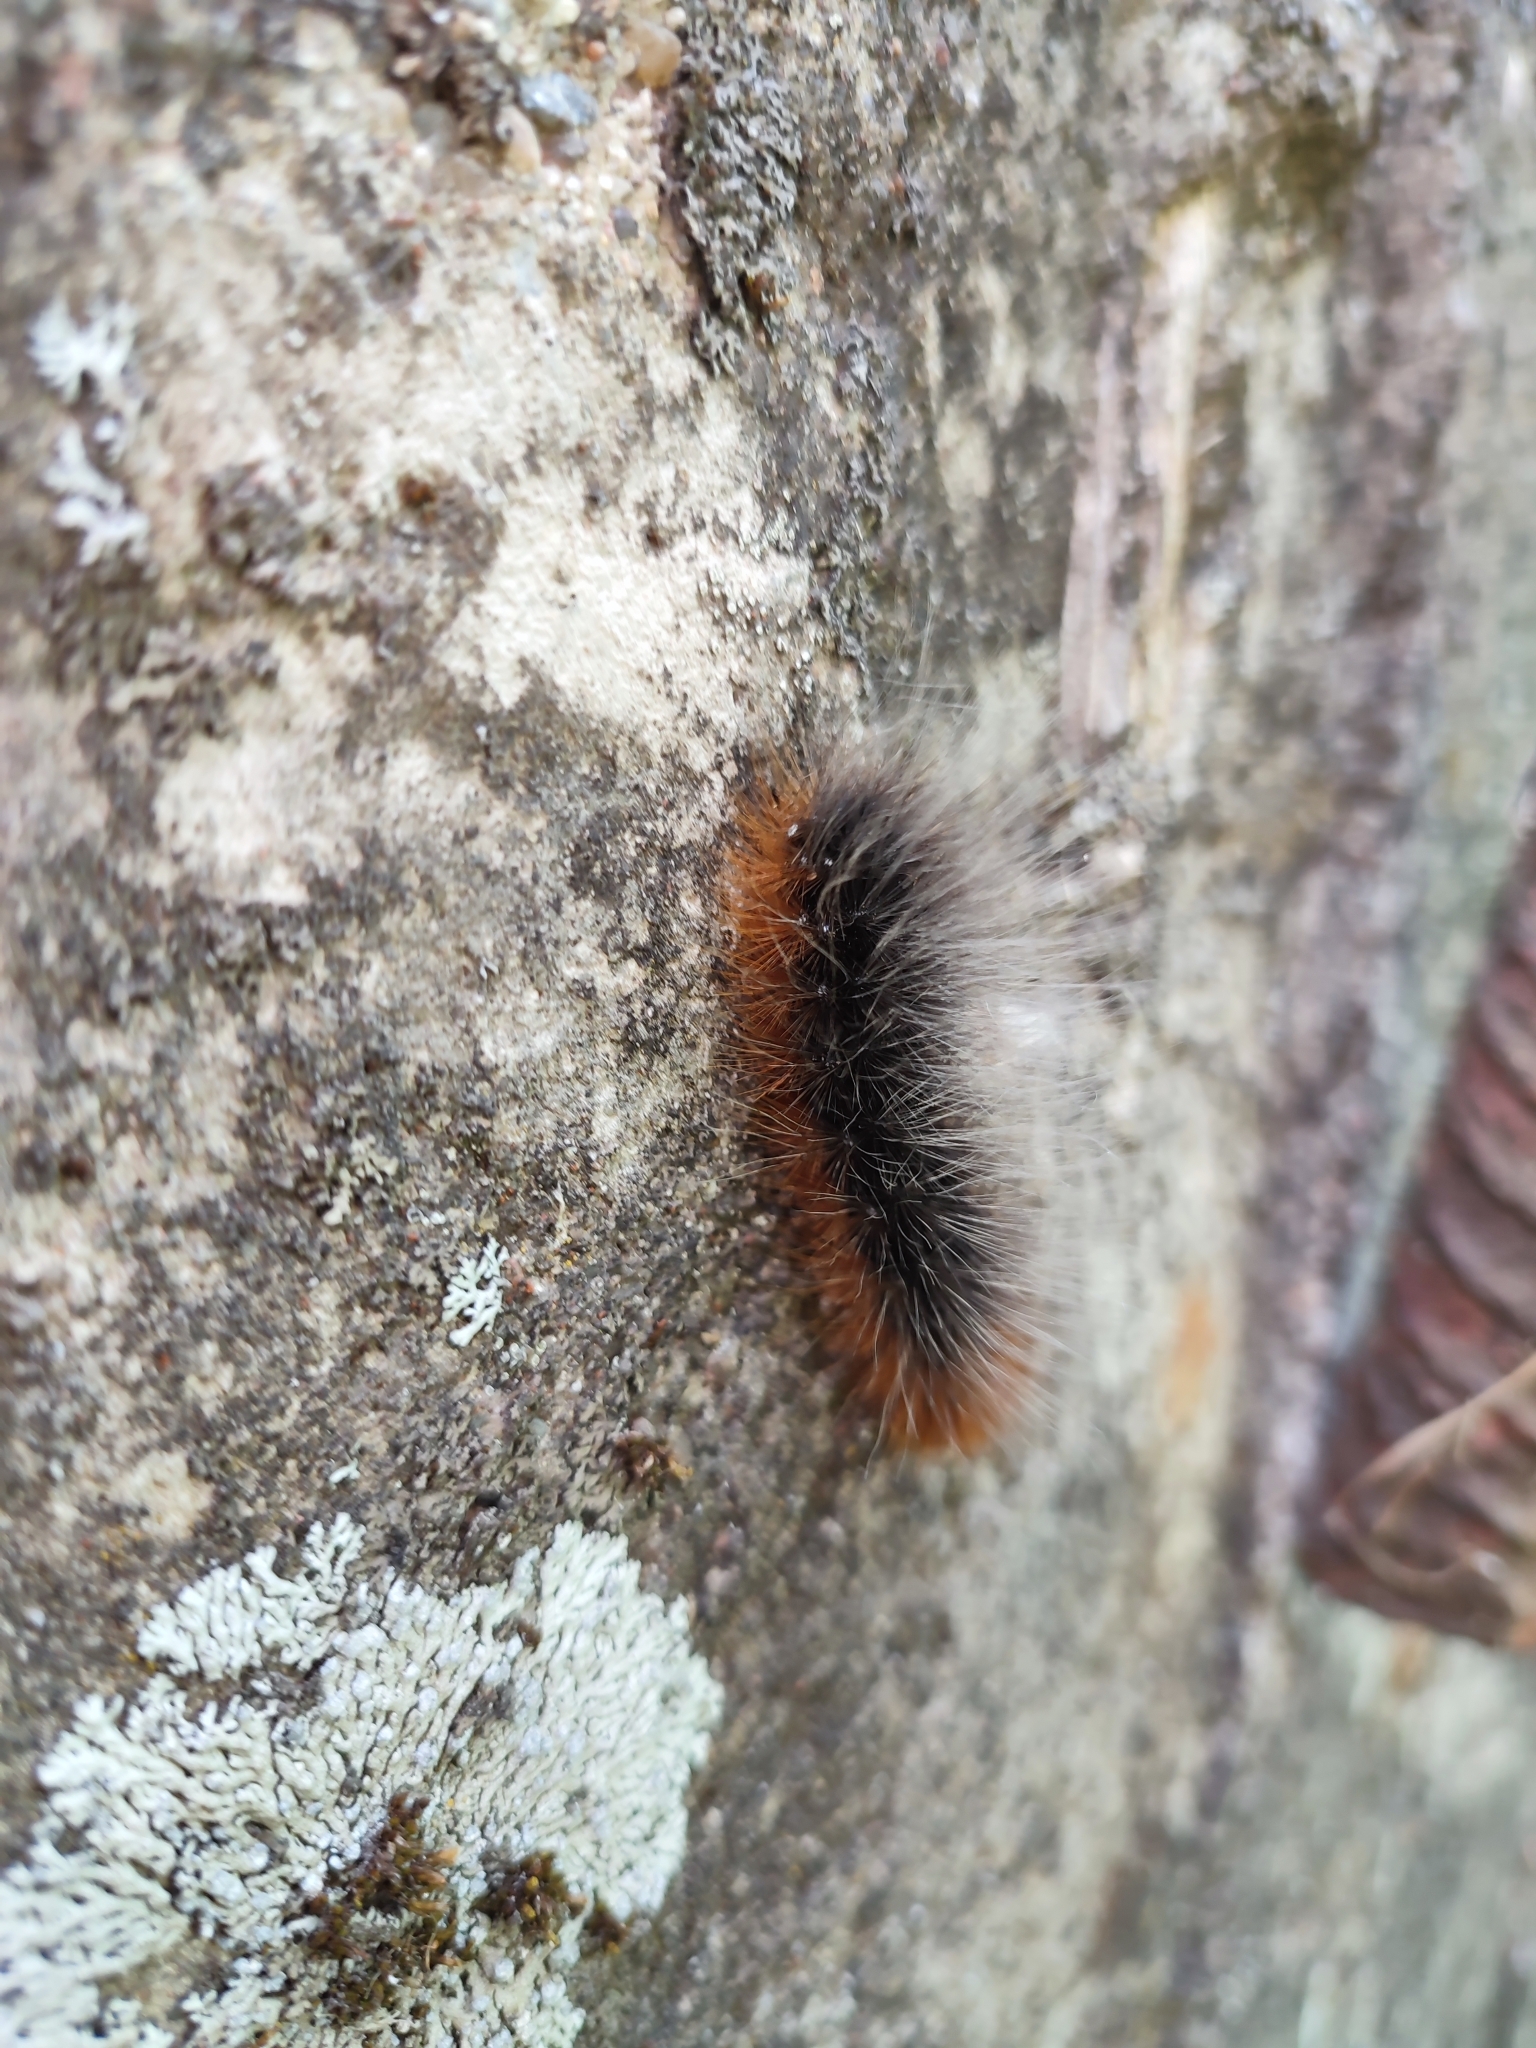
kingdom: Animalia
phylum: Arthropoda
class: Insecta
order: Lepidoptera
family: Erebidae
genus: Arctia
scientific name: Arctia caja
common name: Garden tiger
